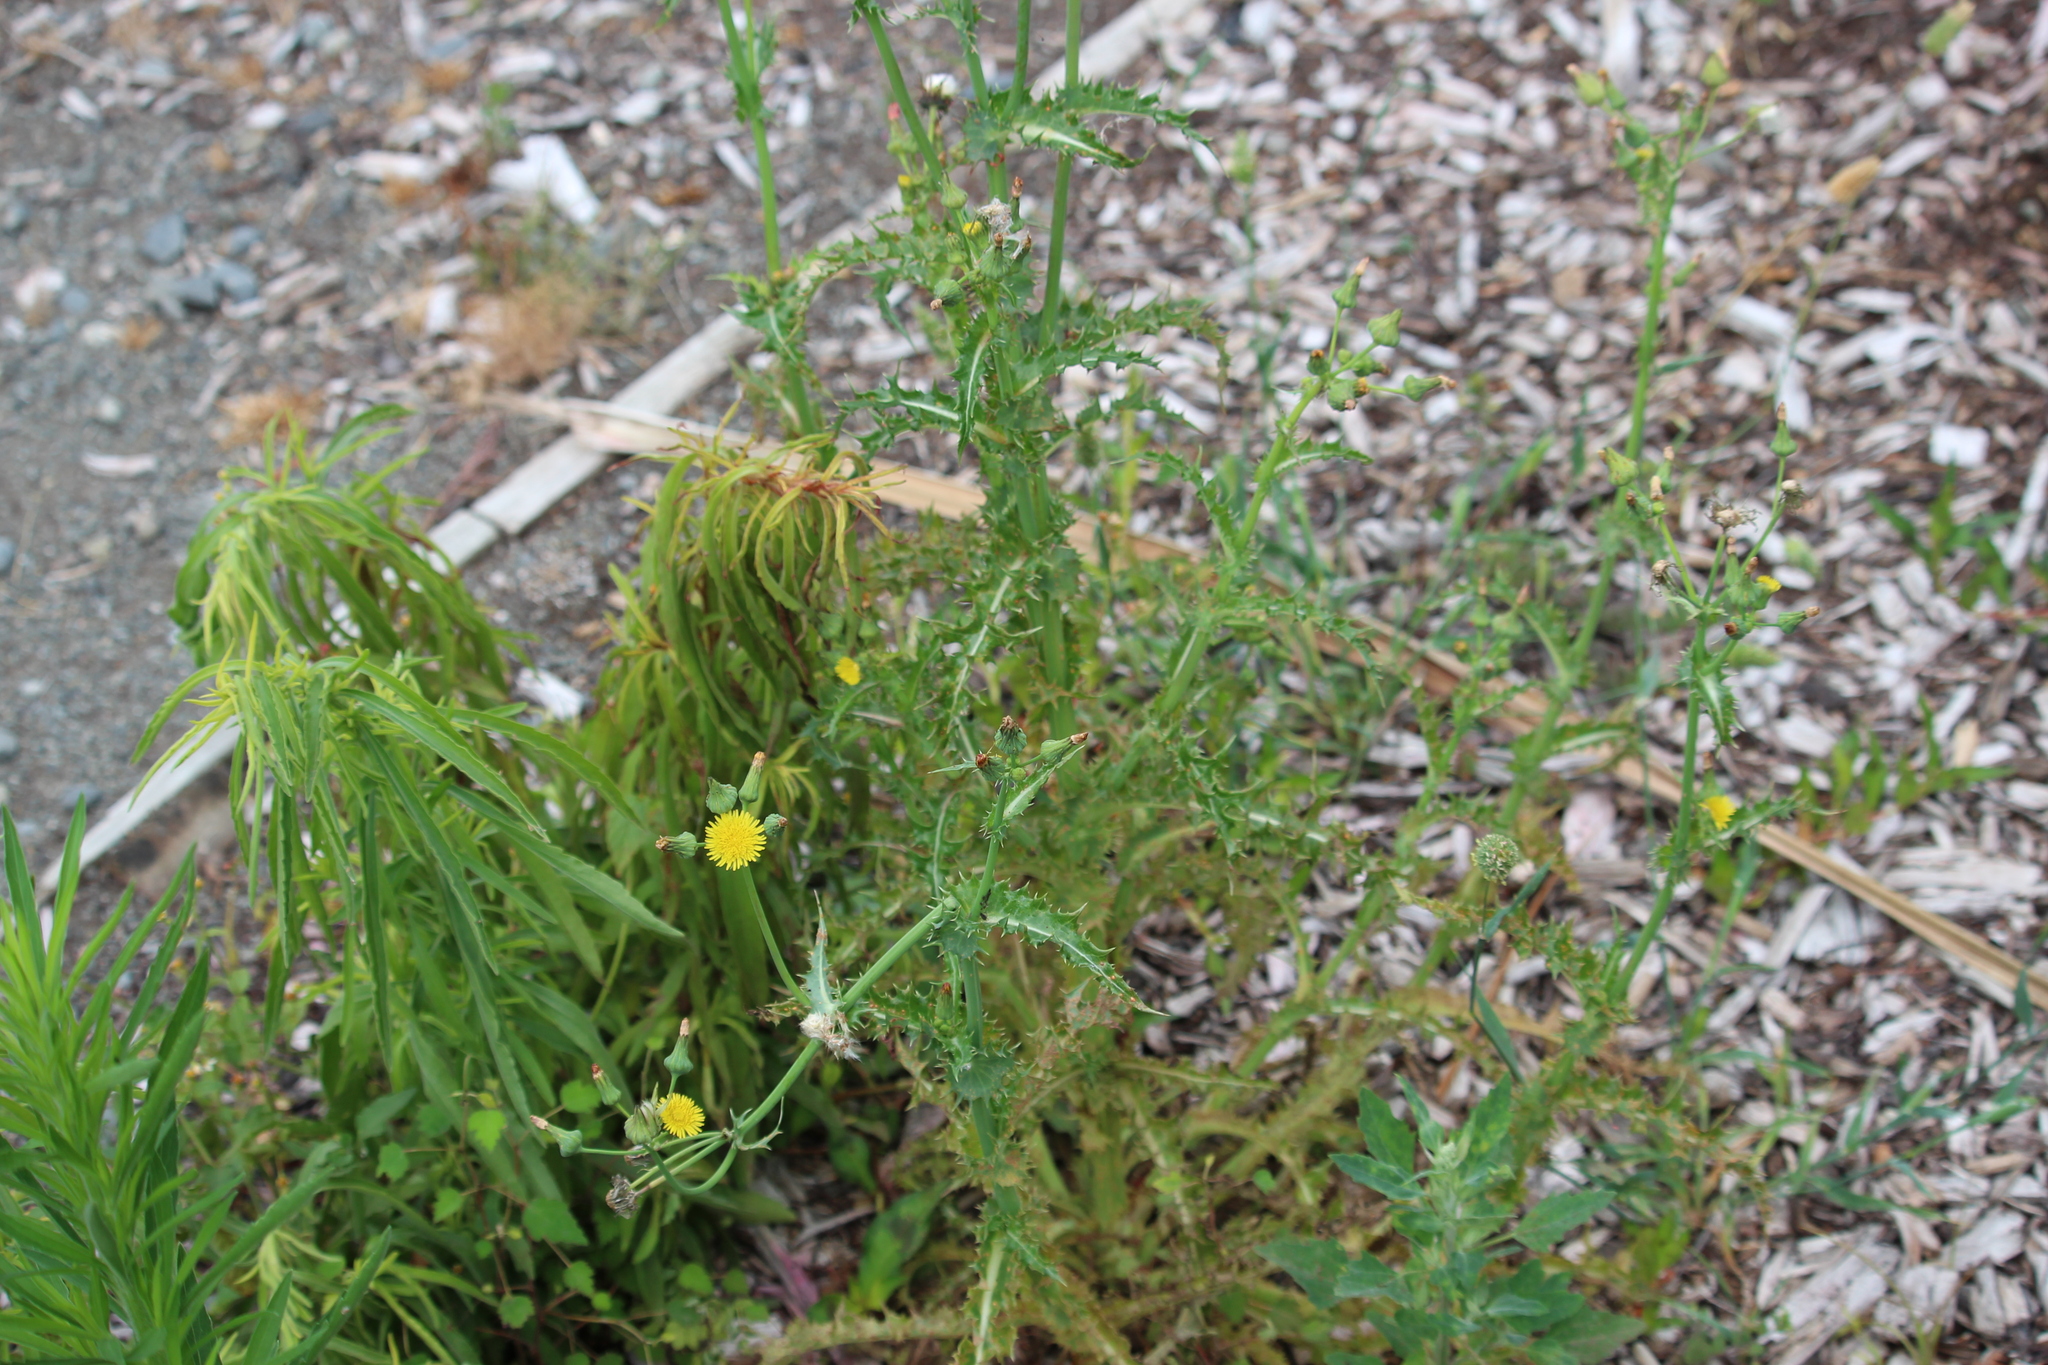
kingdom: Plantae
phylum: Tracheophyta
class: Magnoliopsida
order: Asterales
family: Asteraceae
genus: Sonchus
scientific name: Sonchus asper
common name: Prickly sow-thistle
